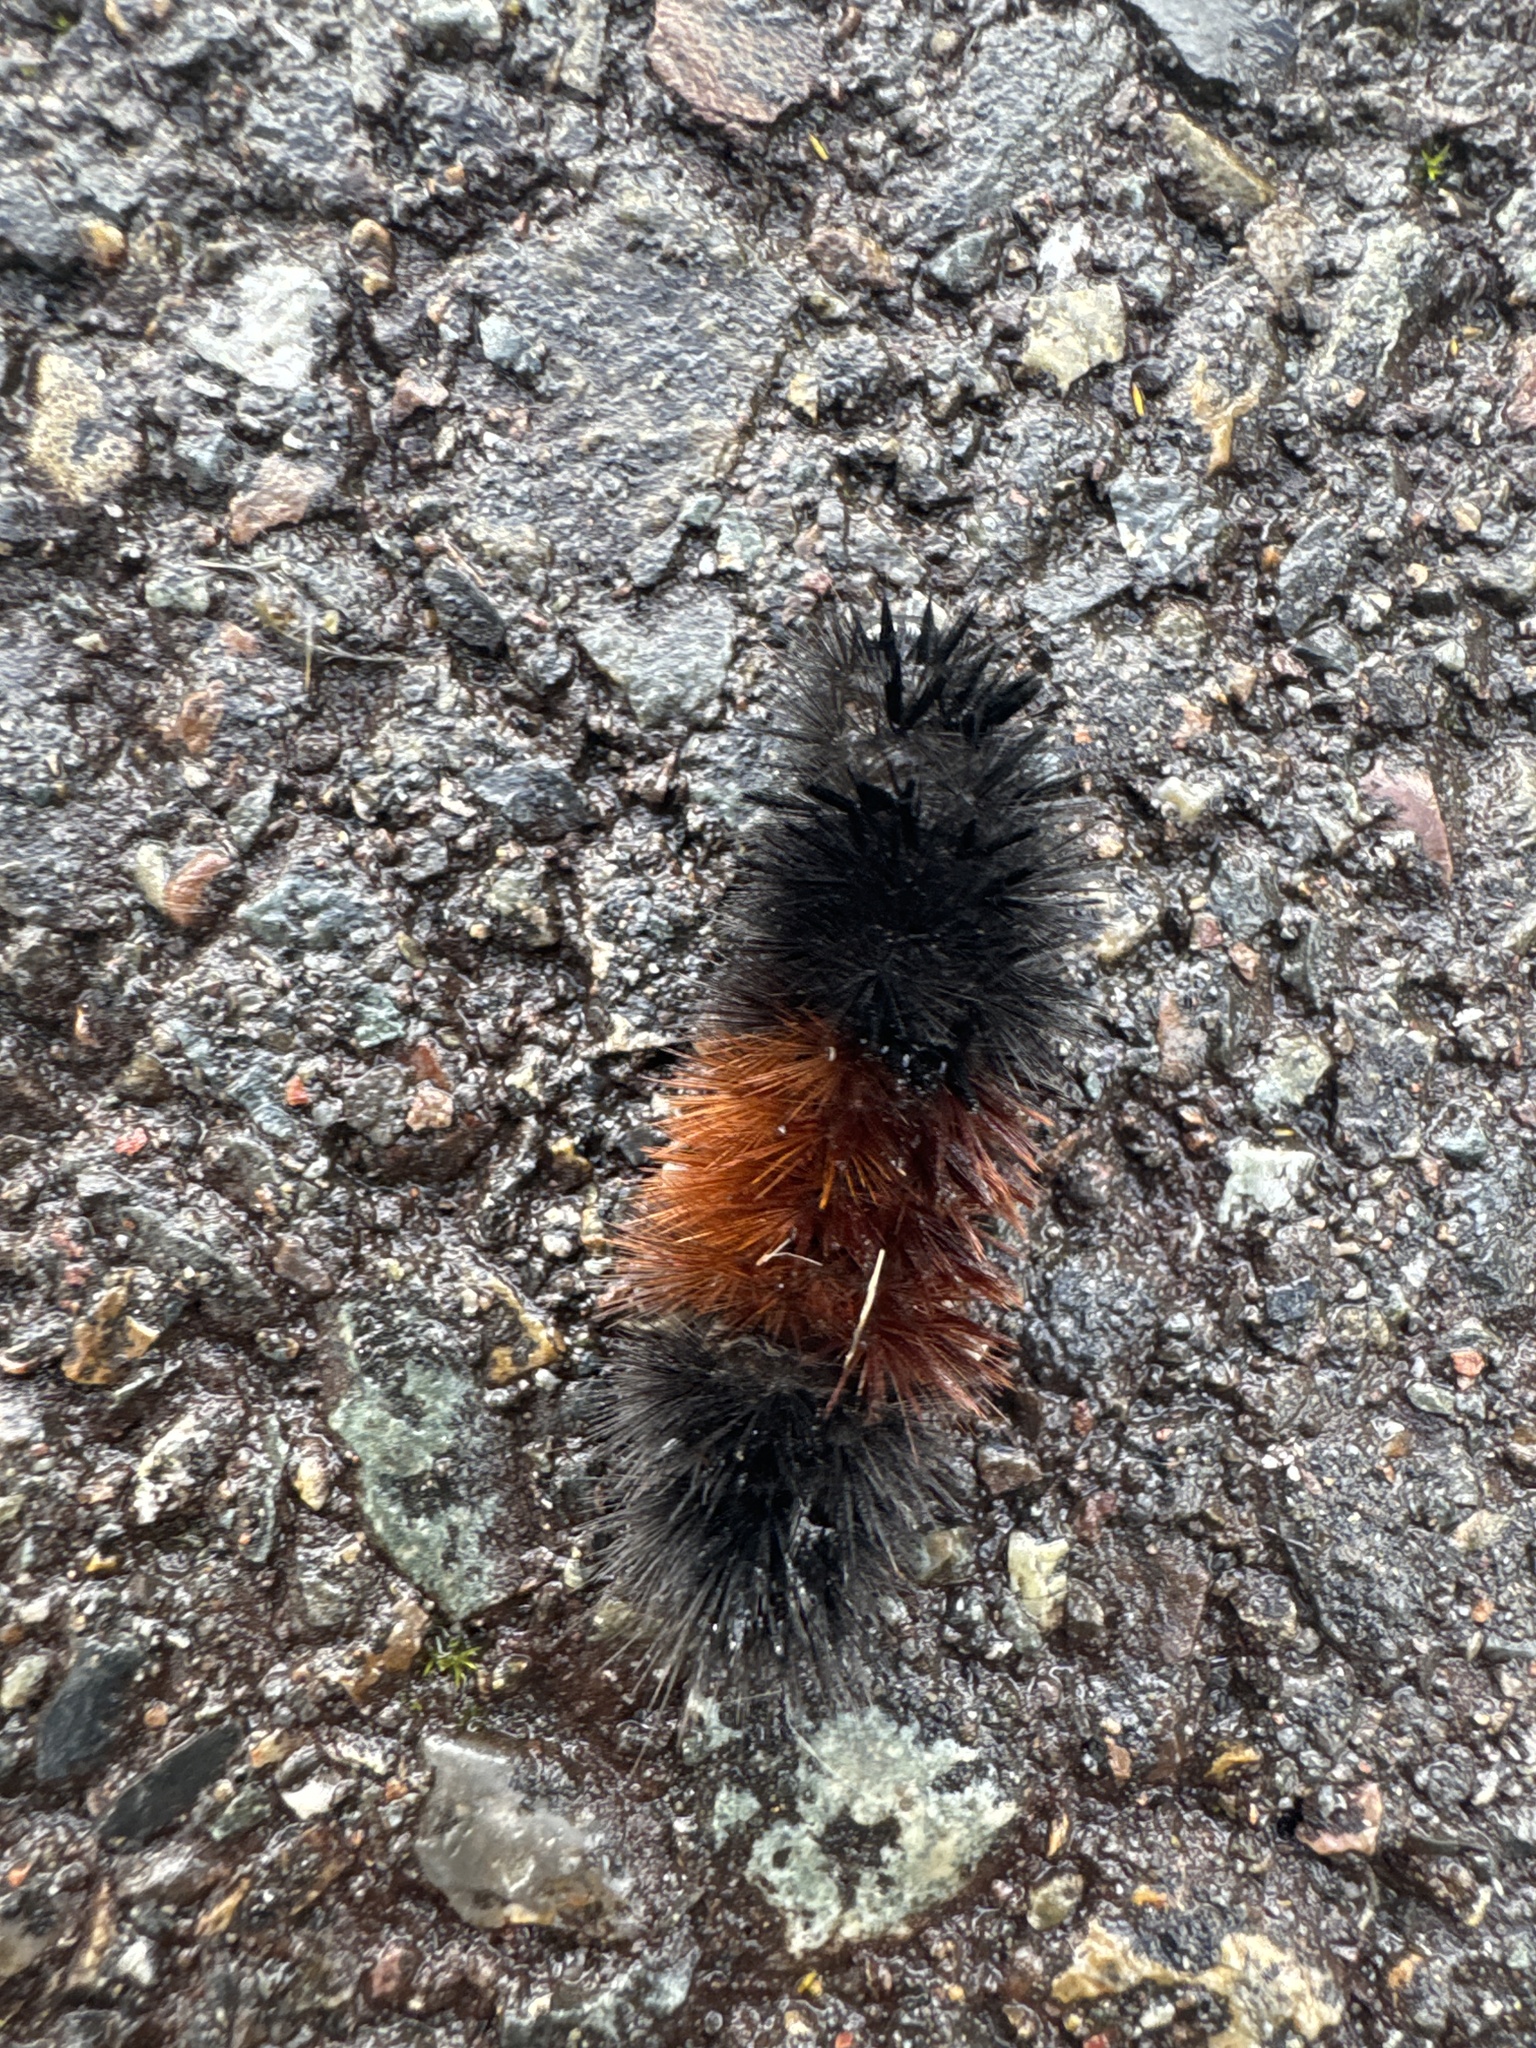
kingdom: Animalia
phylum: Arthropoda
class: Insecta
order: Lepidoptera
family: Erebidae
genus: Pyrrharctia
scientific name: Pyrrharctia isabella
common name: Isabella tiger moth
